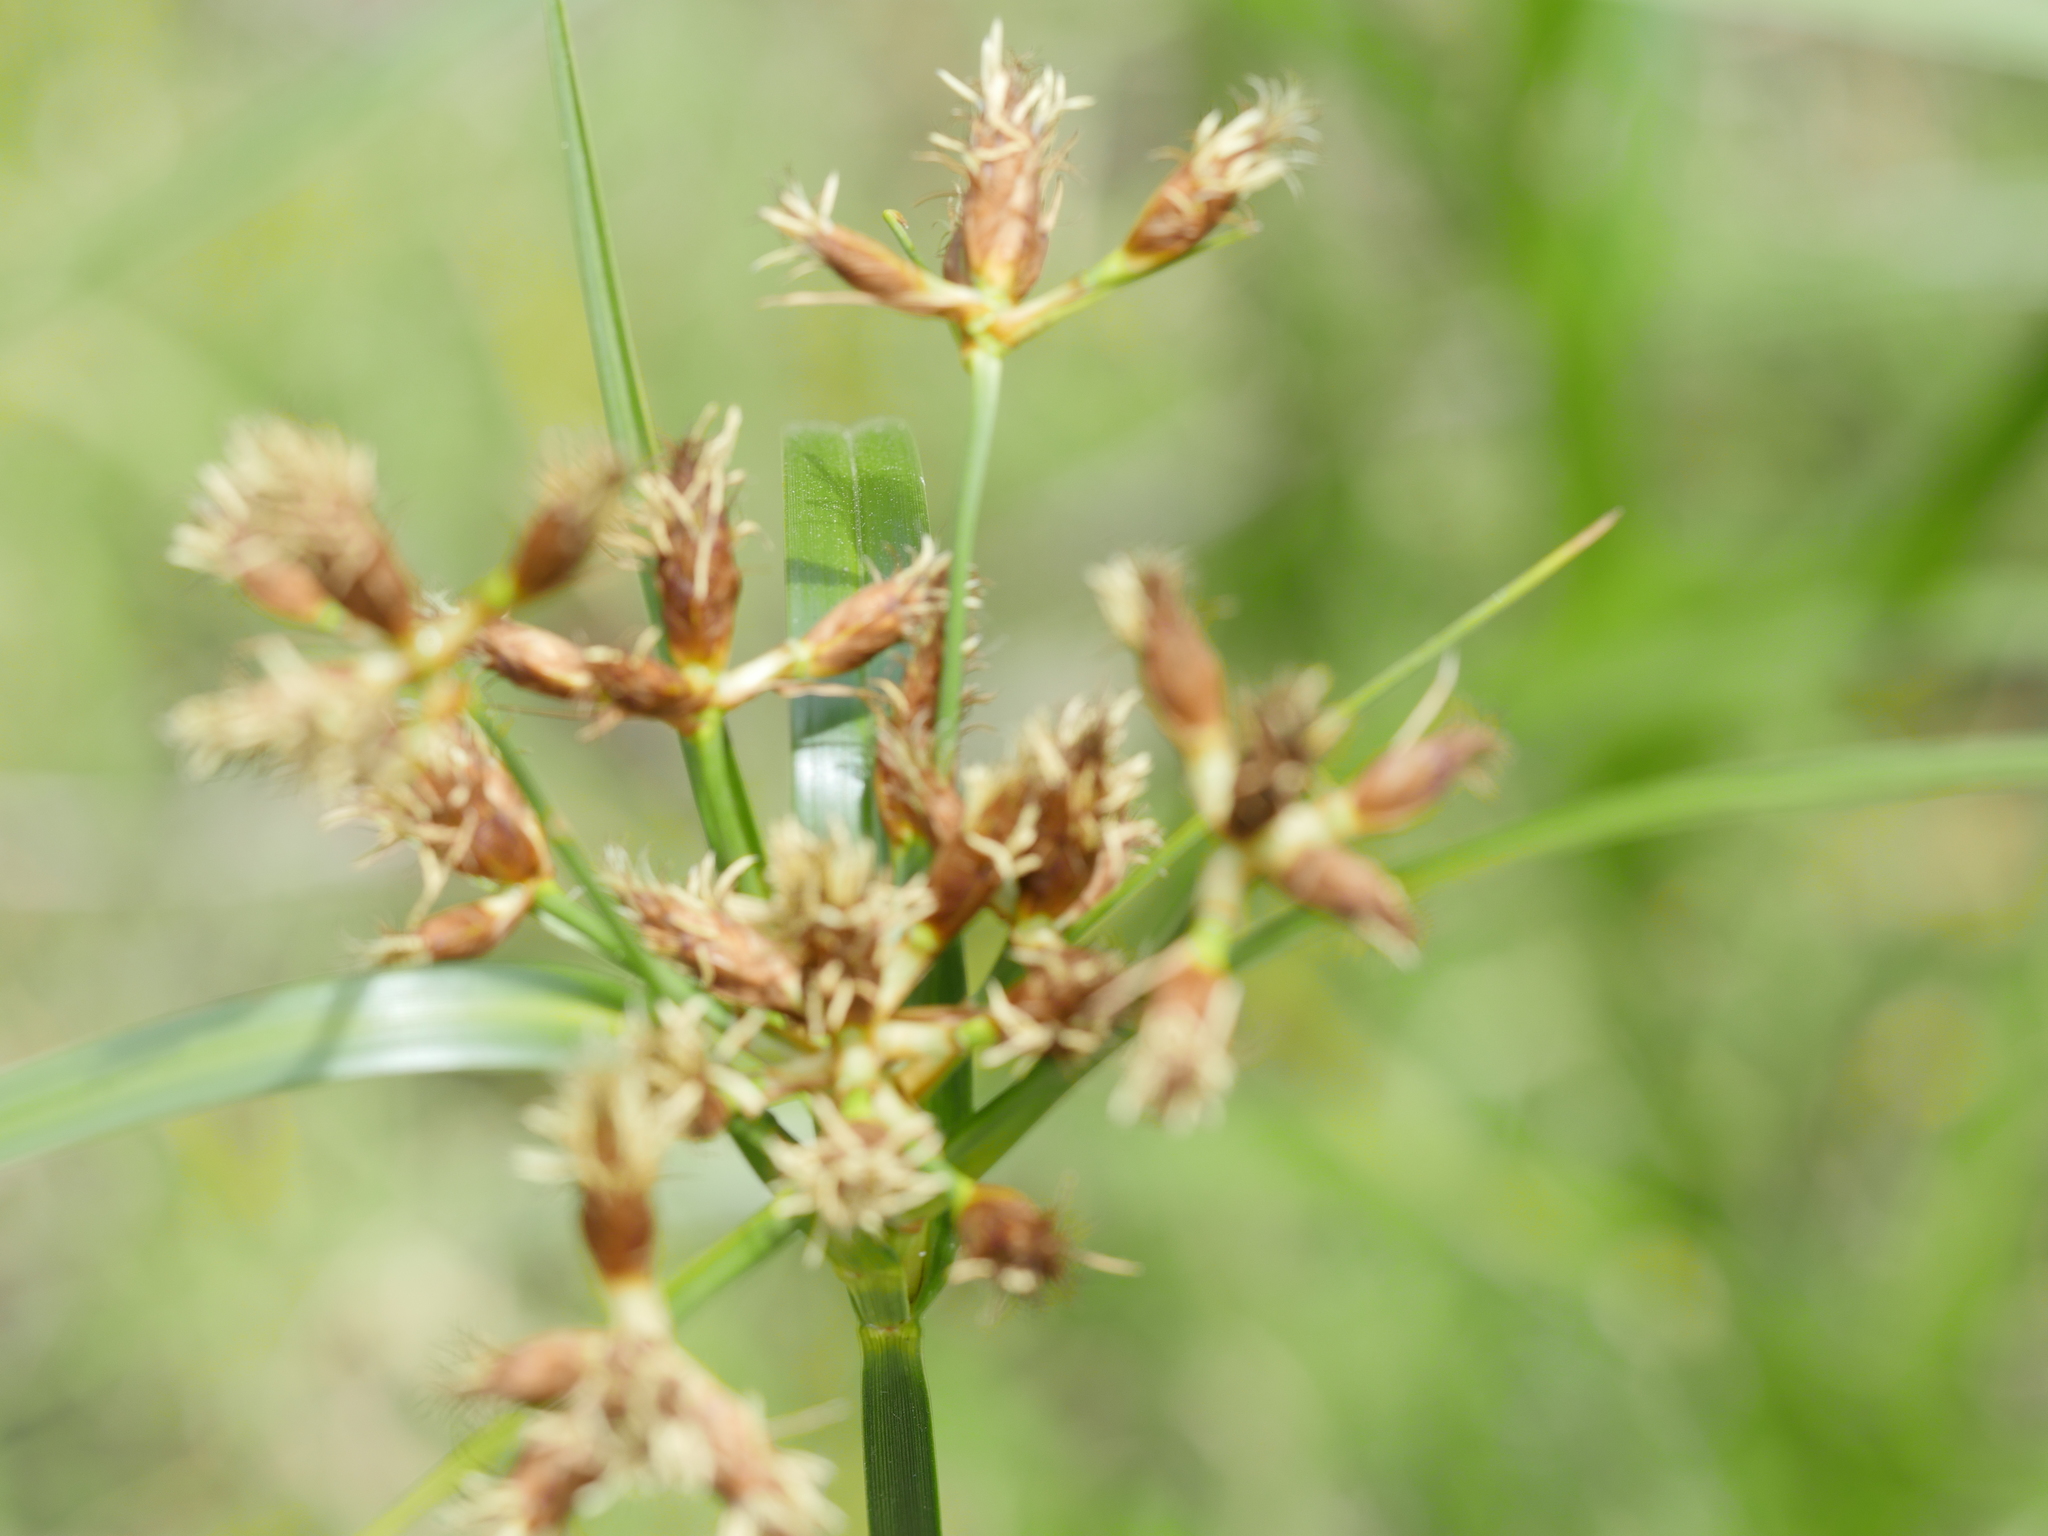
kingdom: Plantae
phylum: Tracheophyta
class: Liliopsida
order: Poales
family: Cyperaceae
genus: Bolboschoenus
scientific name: Bolboschoenus fluviatilis
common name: River bulrush
